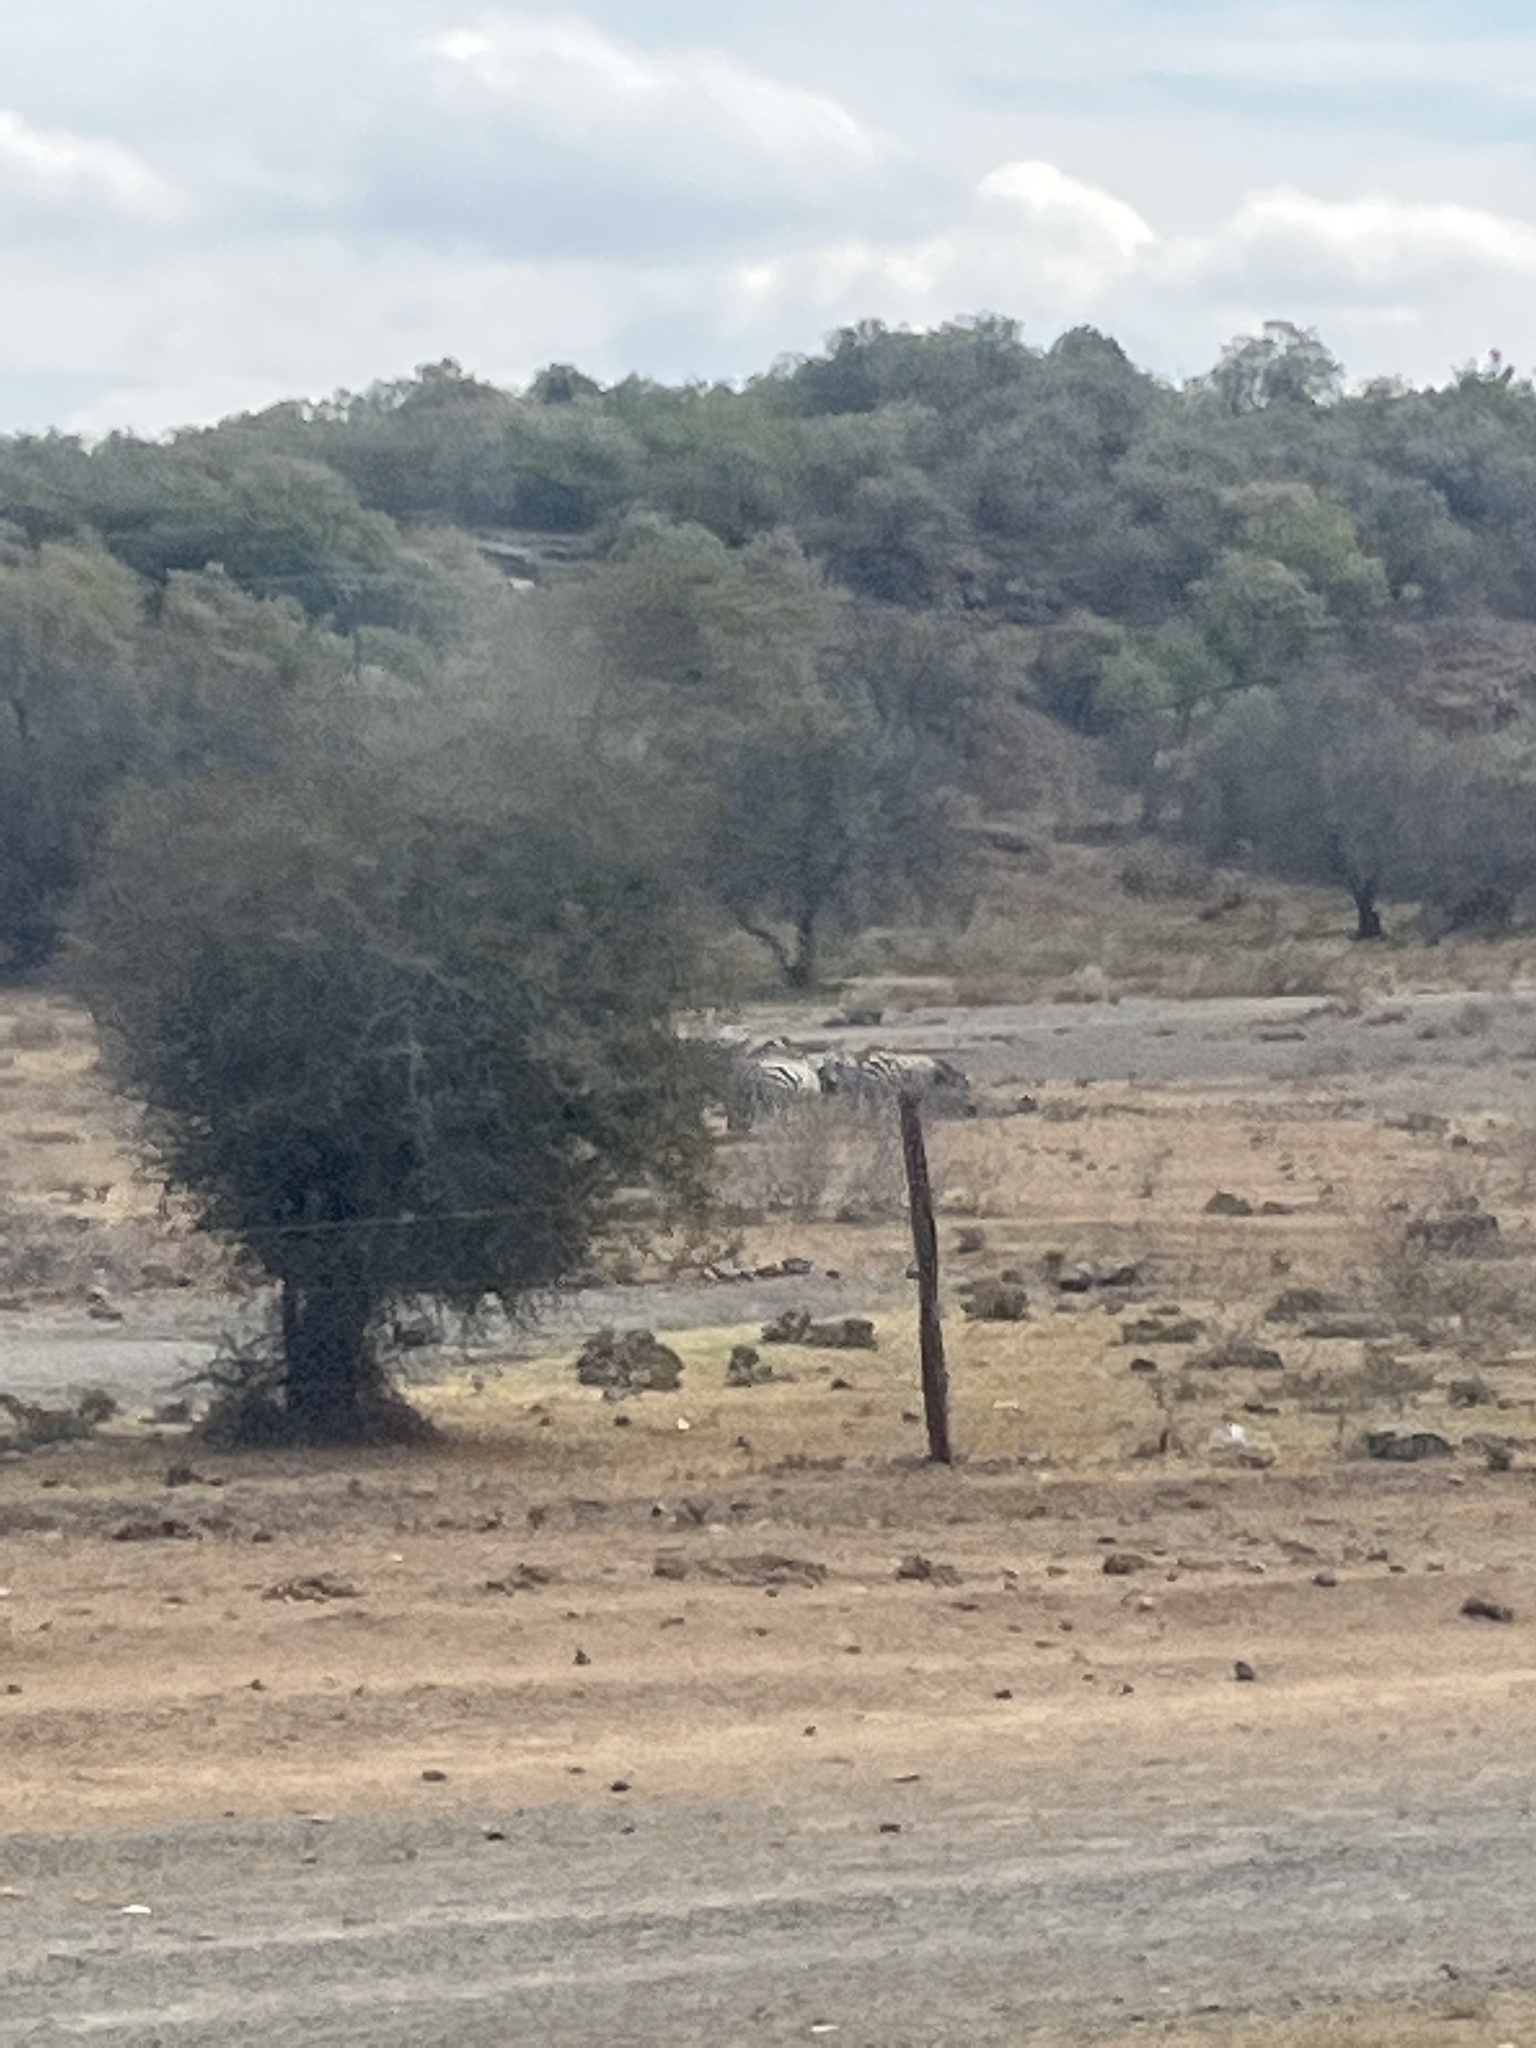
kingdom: Animalia
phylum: Chordata
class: Mammalia
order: Perissodactyla
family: Equidae
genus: Equus
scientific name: Equus quagga
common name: Plains zebra
